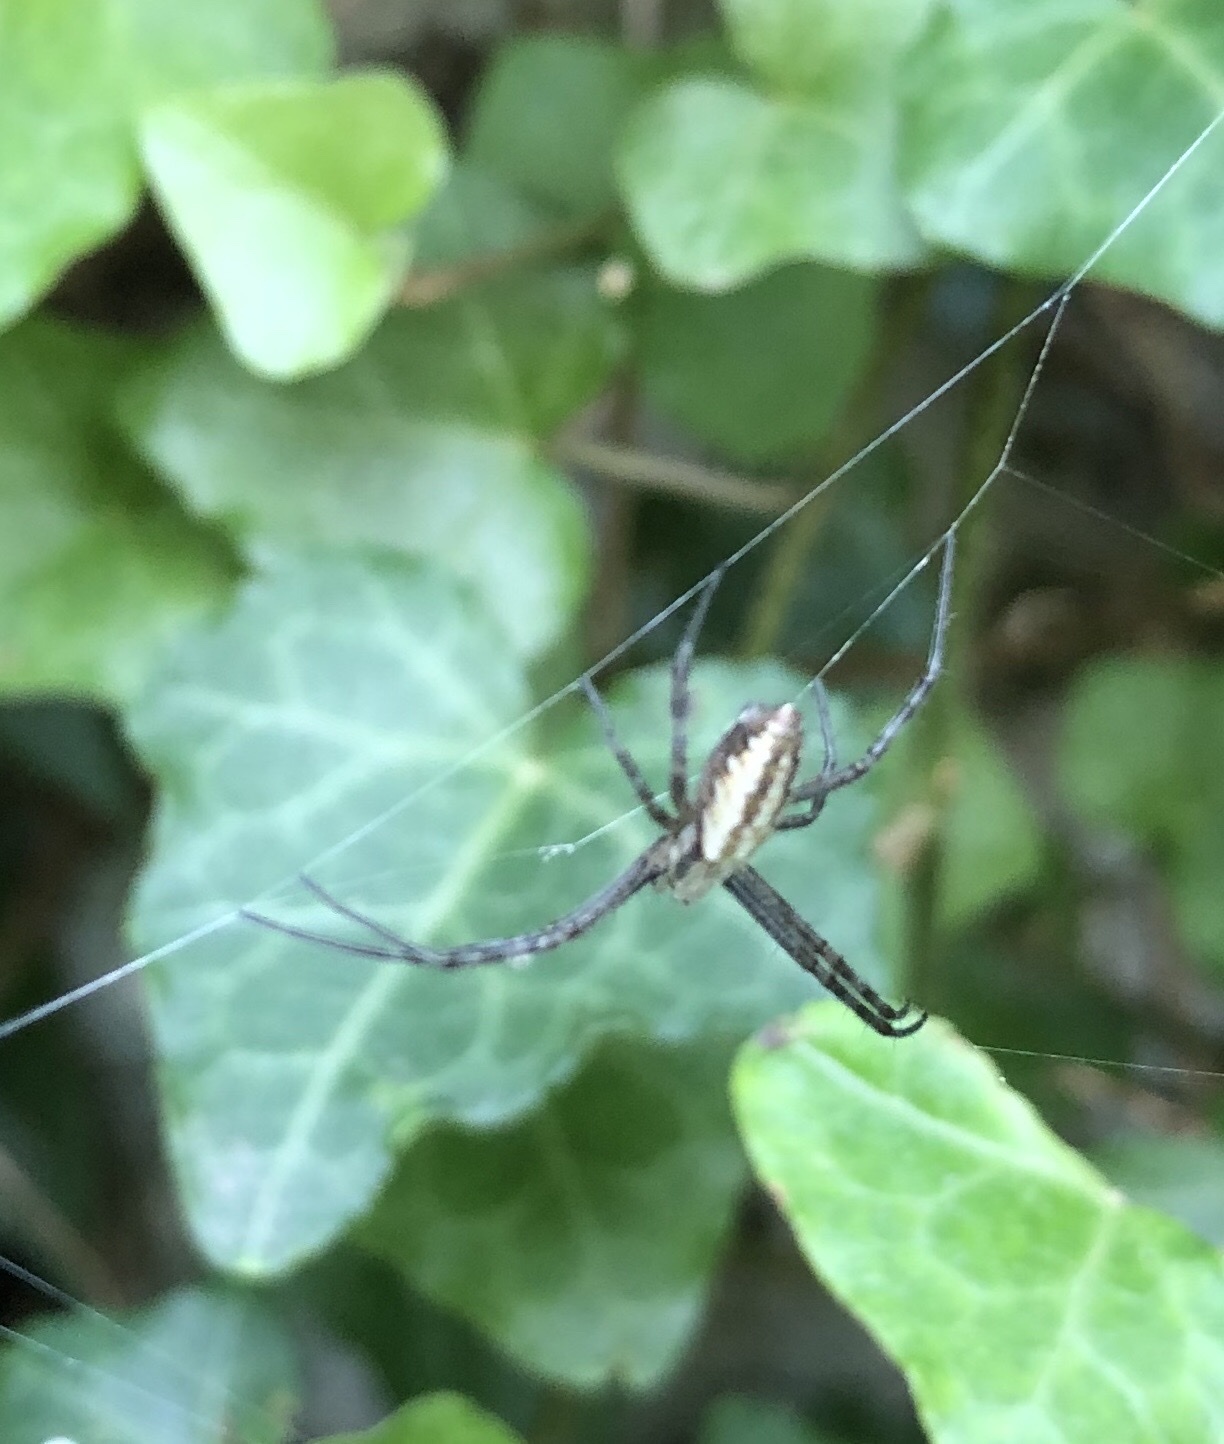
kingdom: Animalia
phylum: Arthropoda
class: Arachnida
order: Araneae
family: Araneidae
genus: Argiope
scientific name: Argiope bruennichi
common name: Wasp spider
